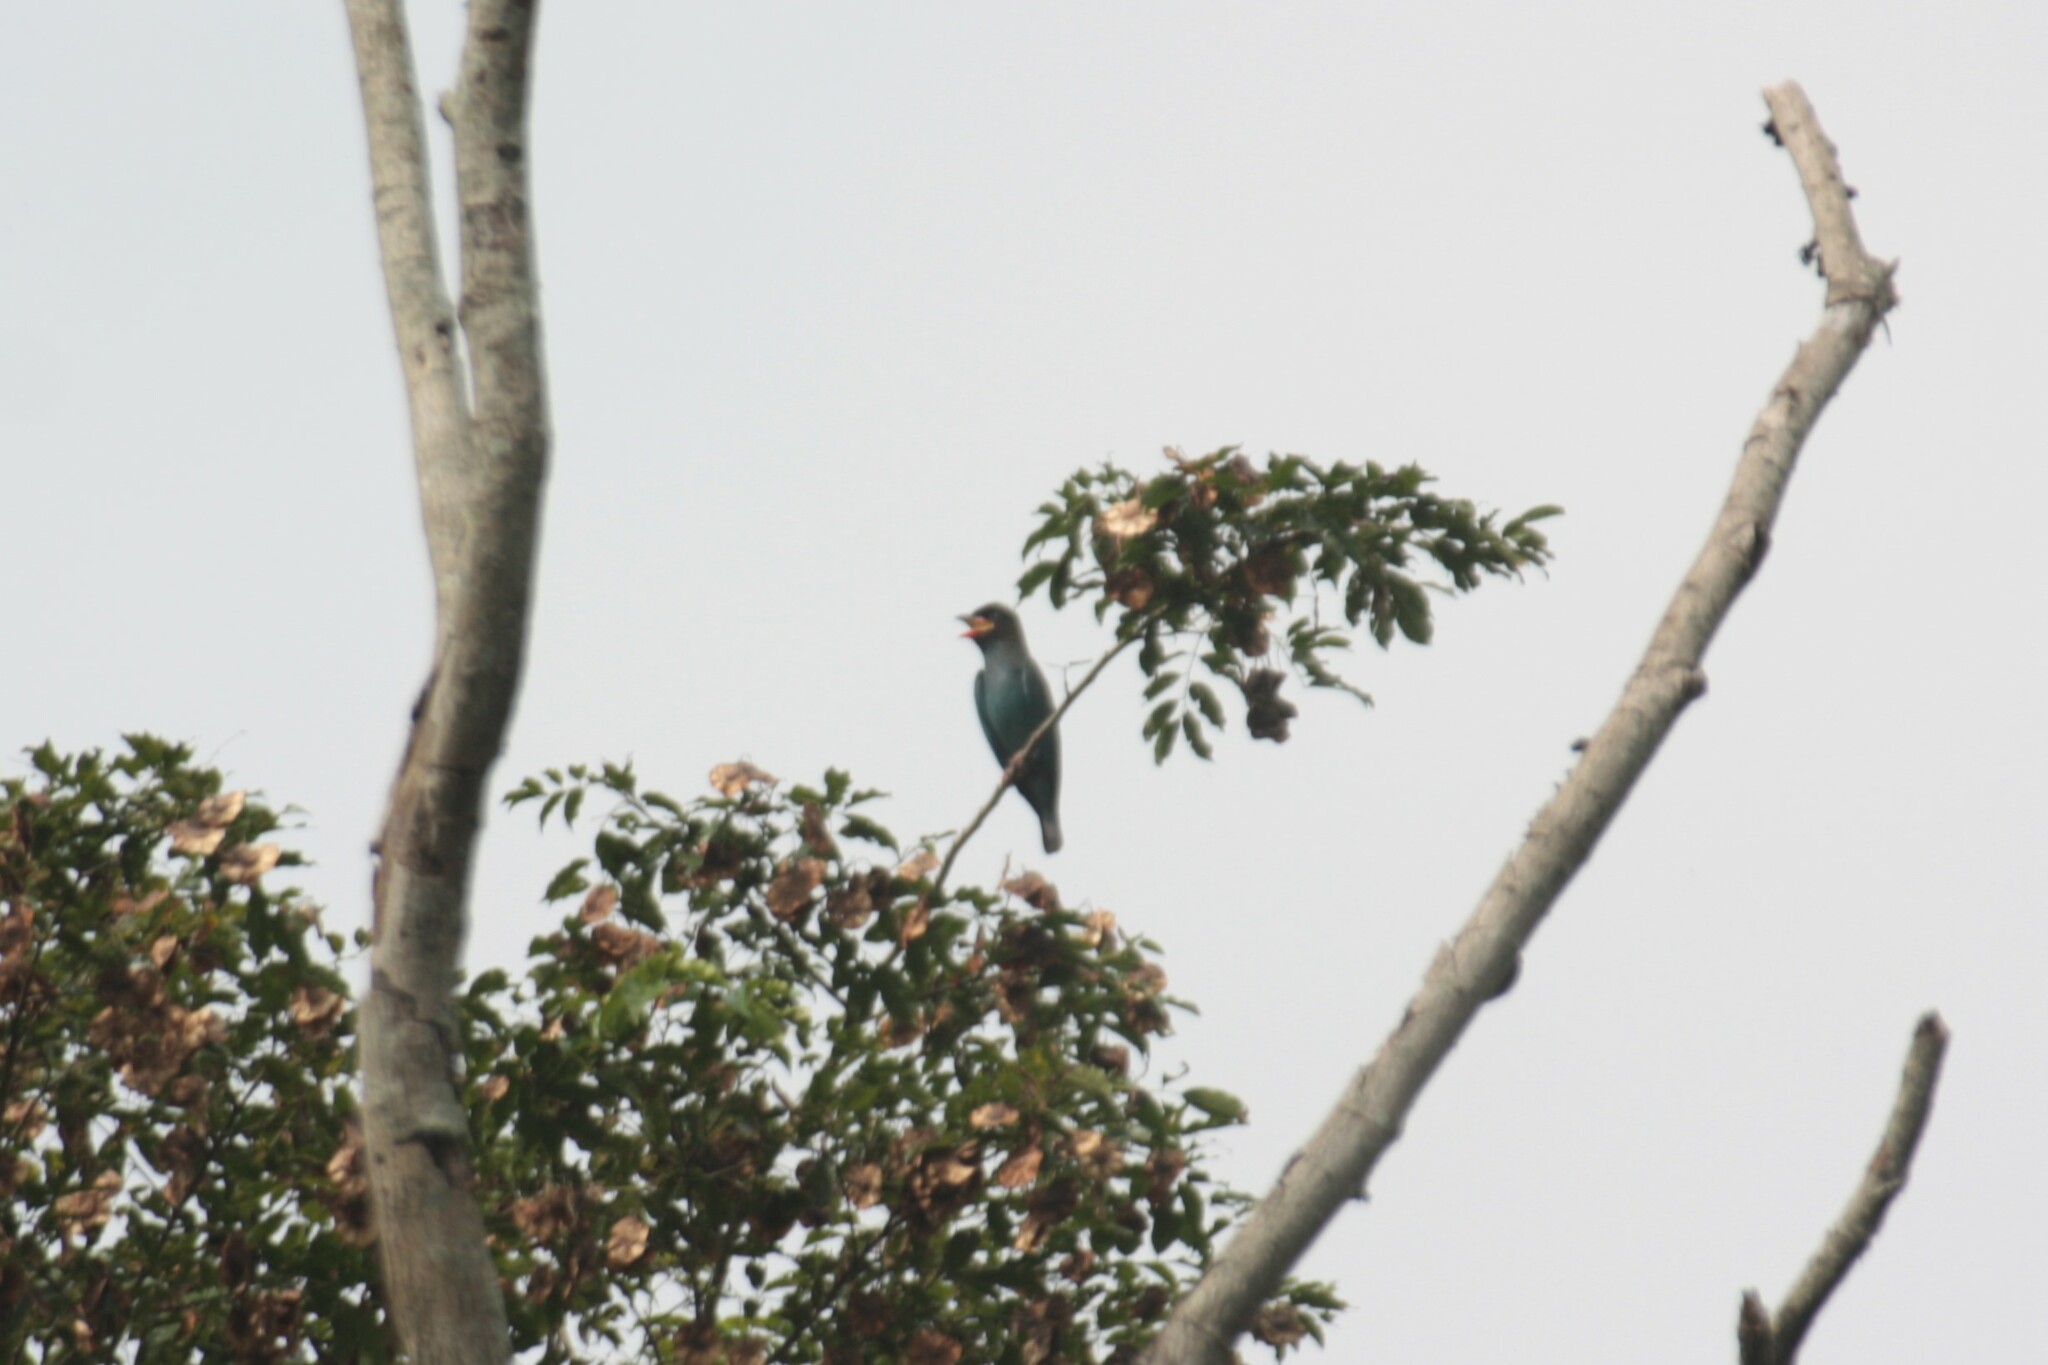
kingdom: Animalia
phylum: Chordata
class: Aves
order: Coraciiformes
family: Coraciidae
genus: Eurystomus
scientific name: Eurystomus orientalis
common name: Oriental dollarbird
